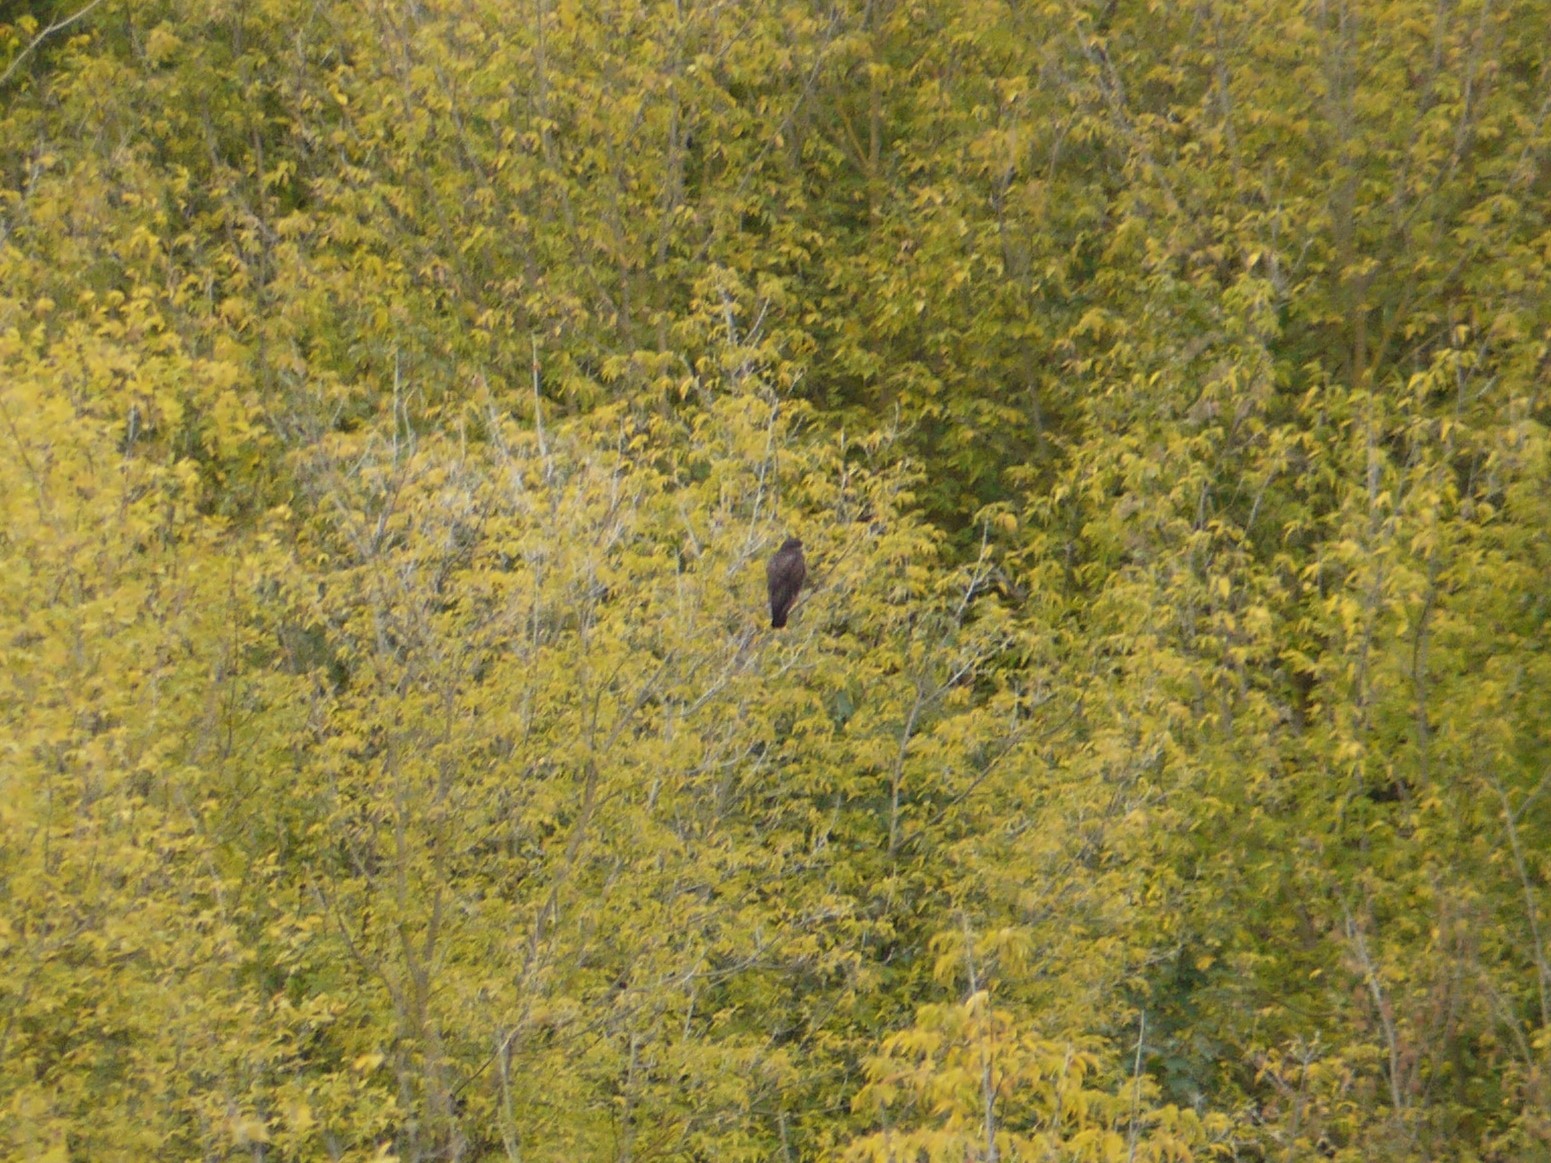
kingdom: Animalia
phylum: Chordata
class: Aves
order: Accipitriformes
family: Accipitridae
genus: Buteo
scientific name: Buteo buteo
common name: Common buzzard
